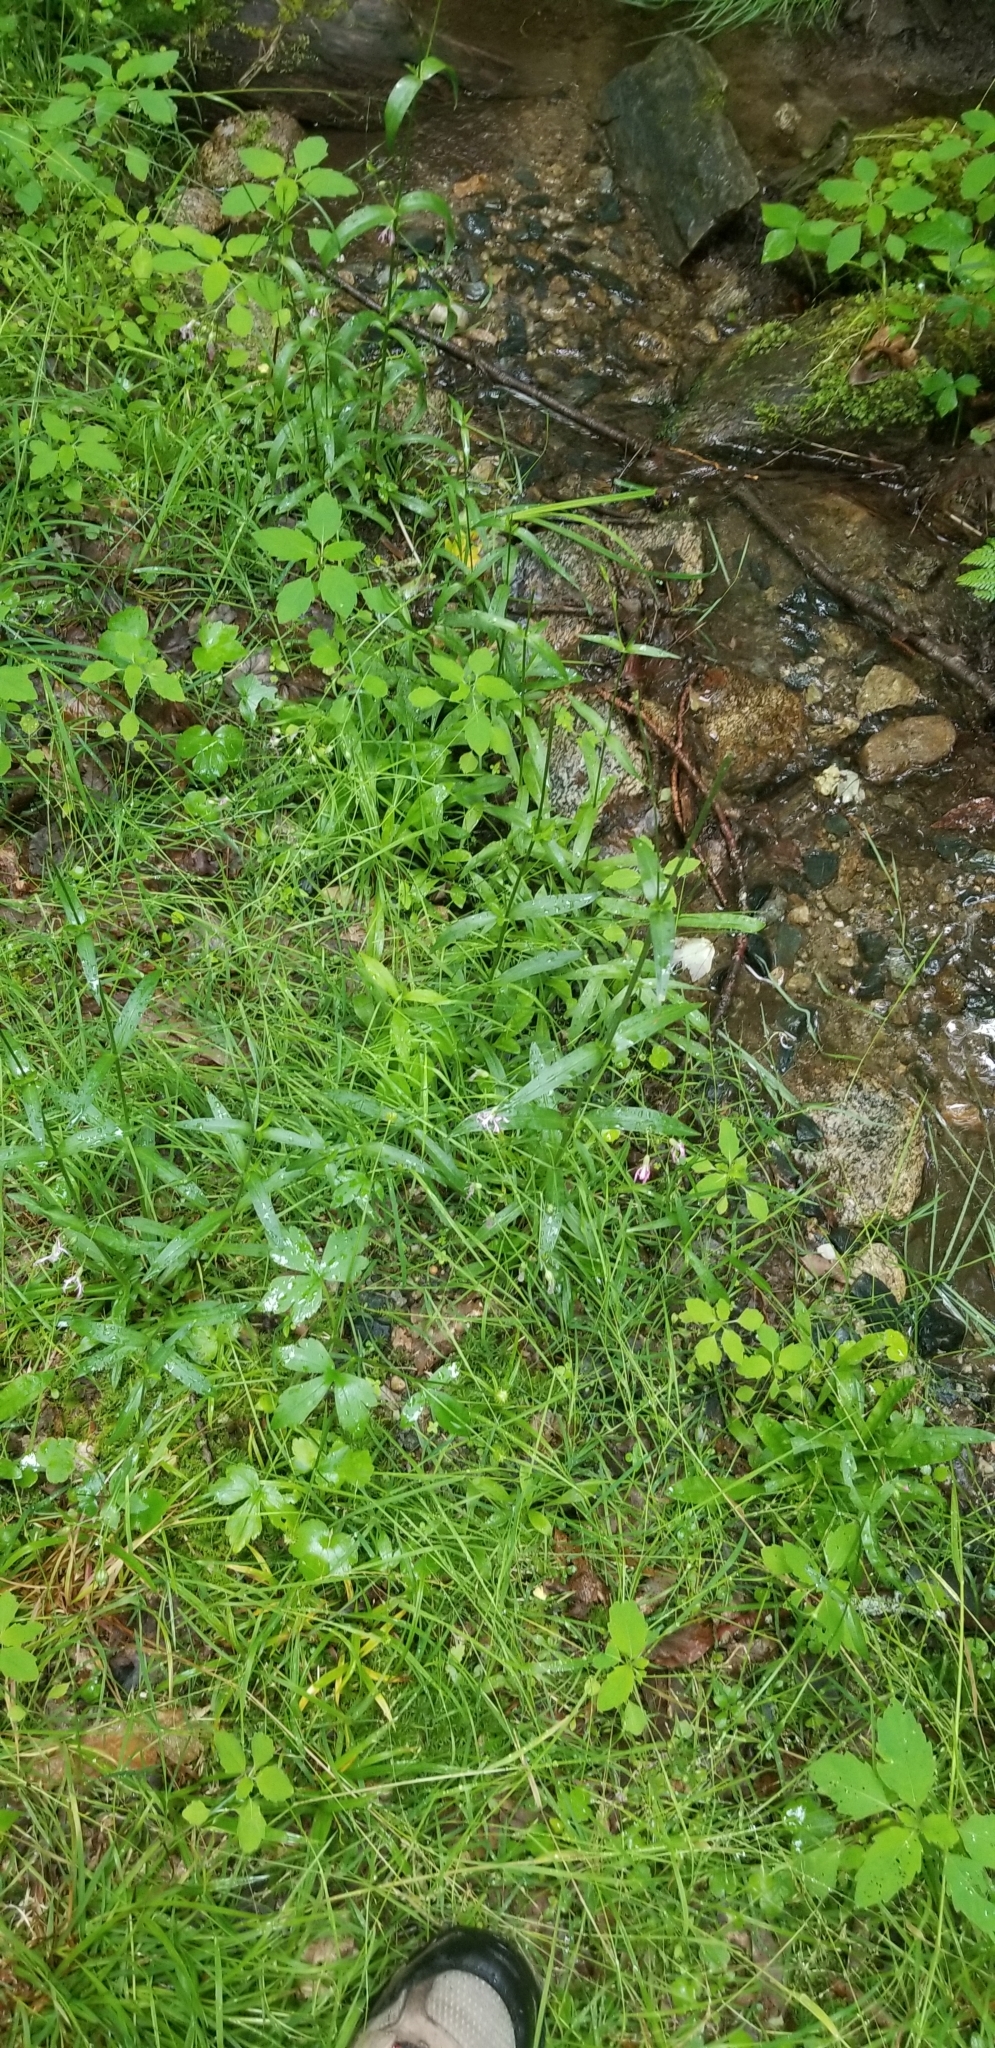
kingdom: Plantae
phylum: Tracheophyta
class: Magnoliopsida
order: Caryophyllales
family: Caryophyllaceae
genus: Silene
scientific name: Silene flos-cuculi
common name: Ragged-robin
